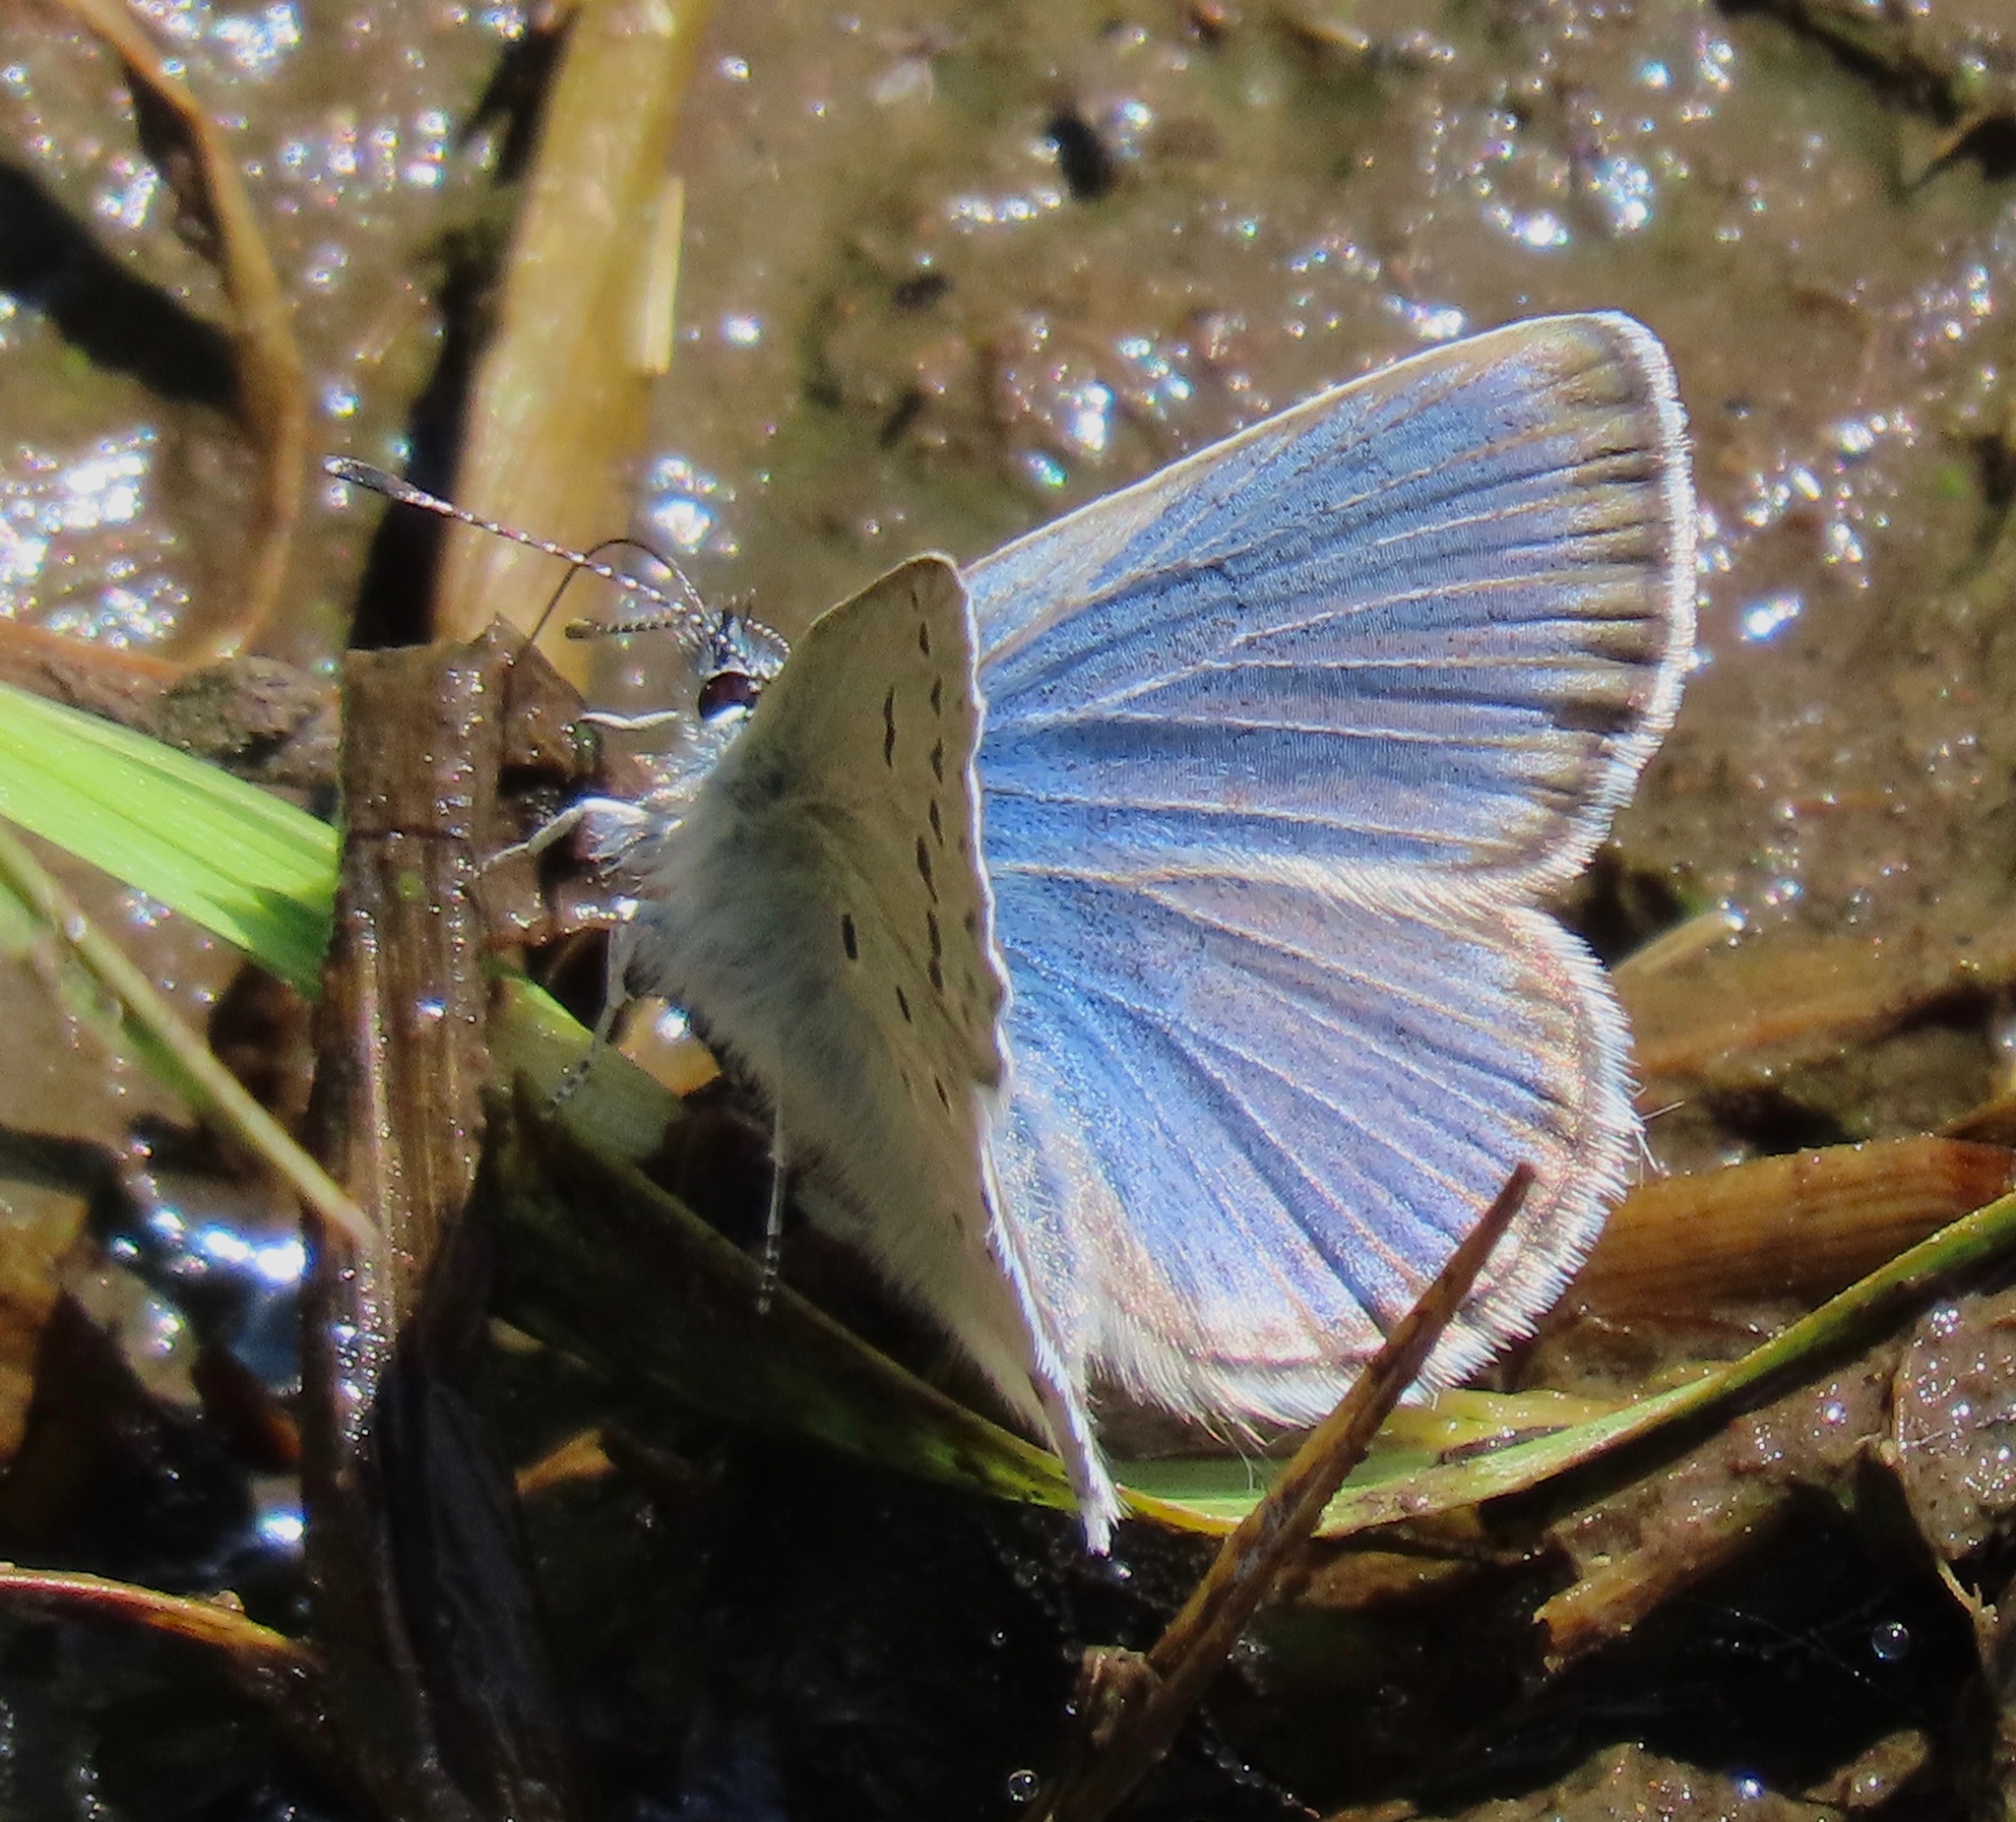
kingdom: Animalia
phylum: Arthropoda
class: Insecta
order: Lepidoptera
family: Lycaenidae
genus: Icaricia
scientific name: Icaricia icarioides
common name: Boisduval's blue
